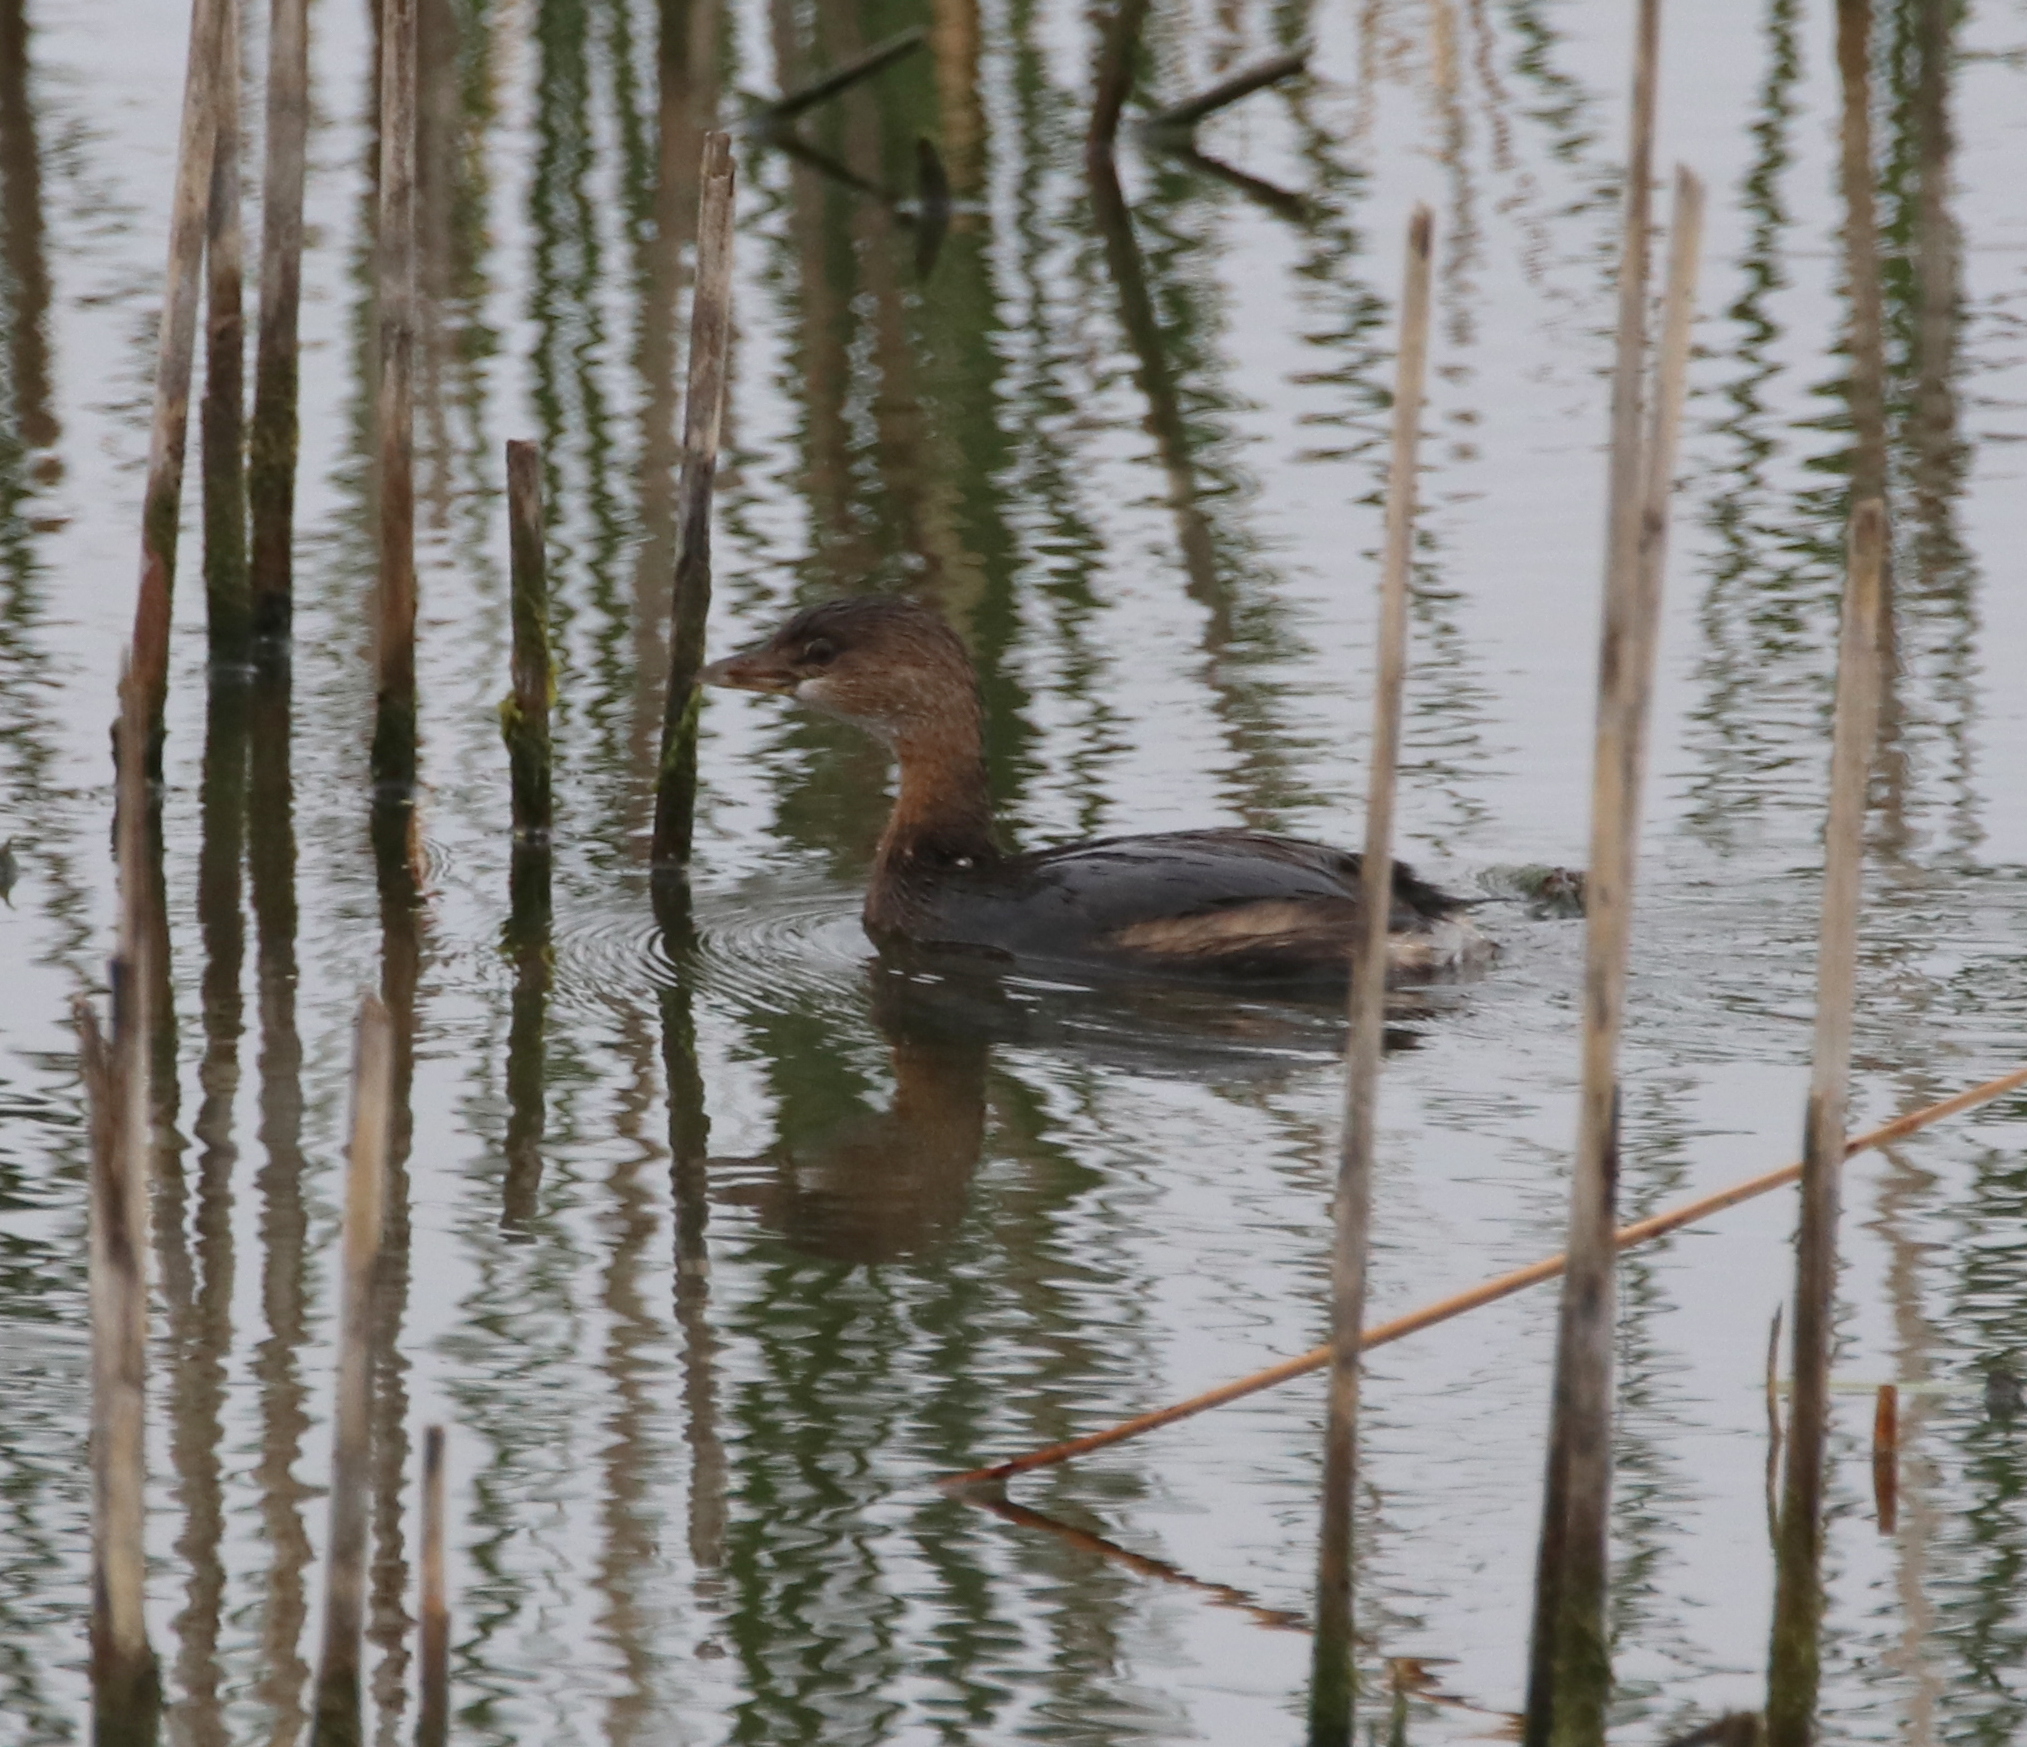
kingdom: Animalia
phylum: Chordata
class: Aves
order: Podicipediformes
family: Podicipedidae
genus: Podilymbus
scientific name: Podilymbus podiceps
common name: Pied-billed grebe
